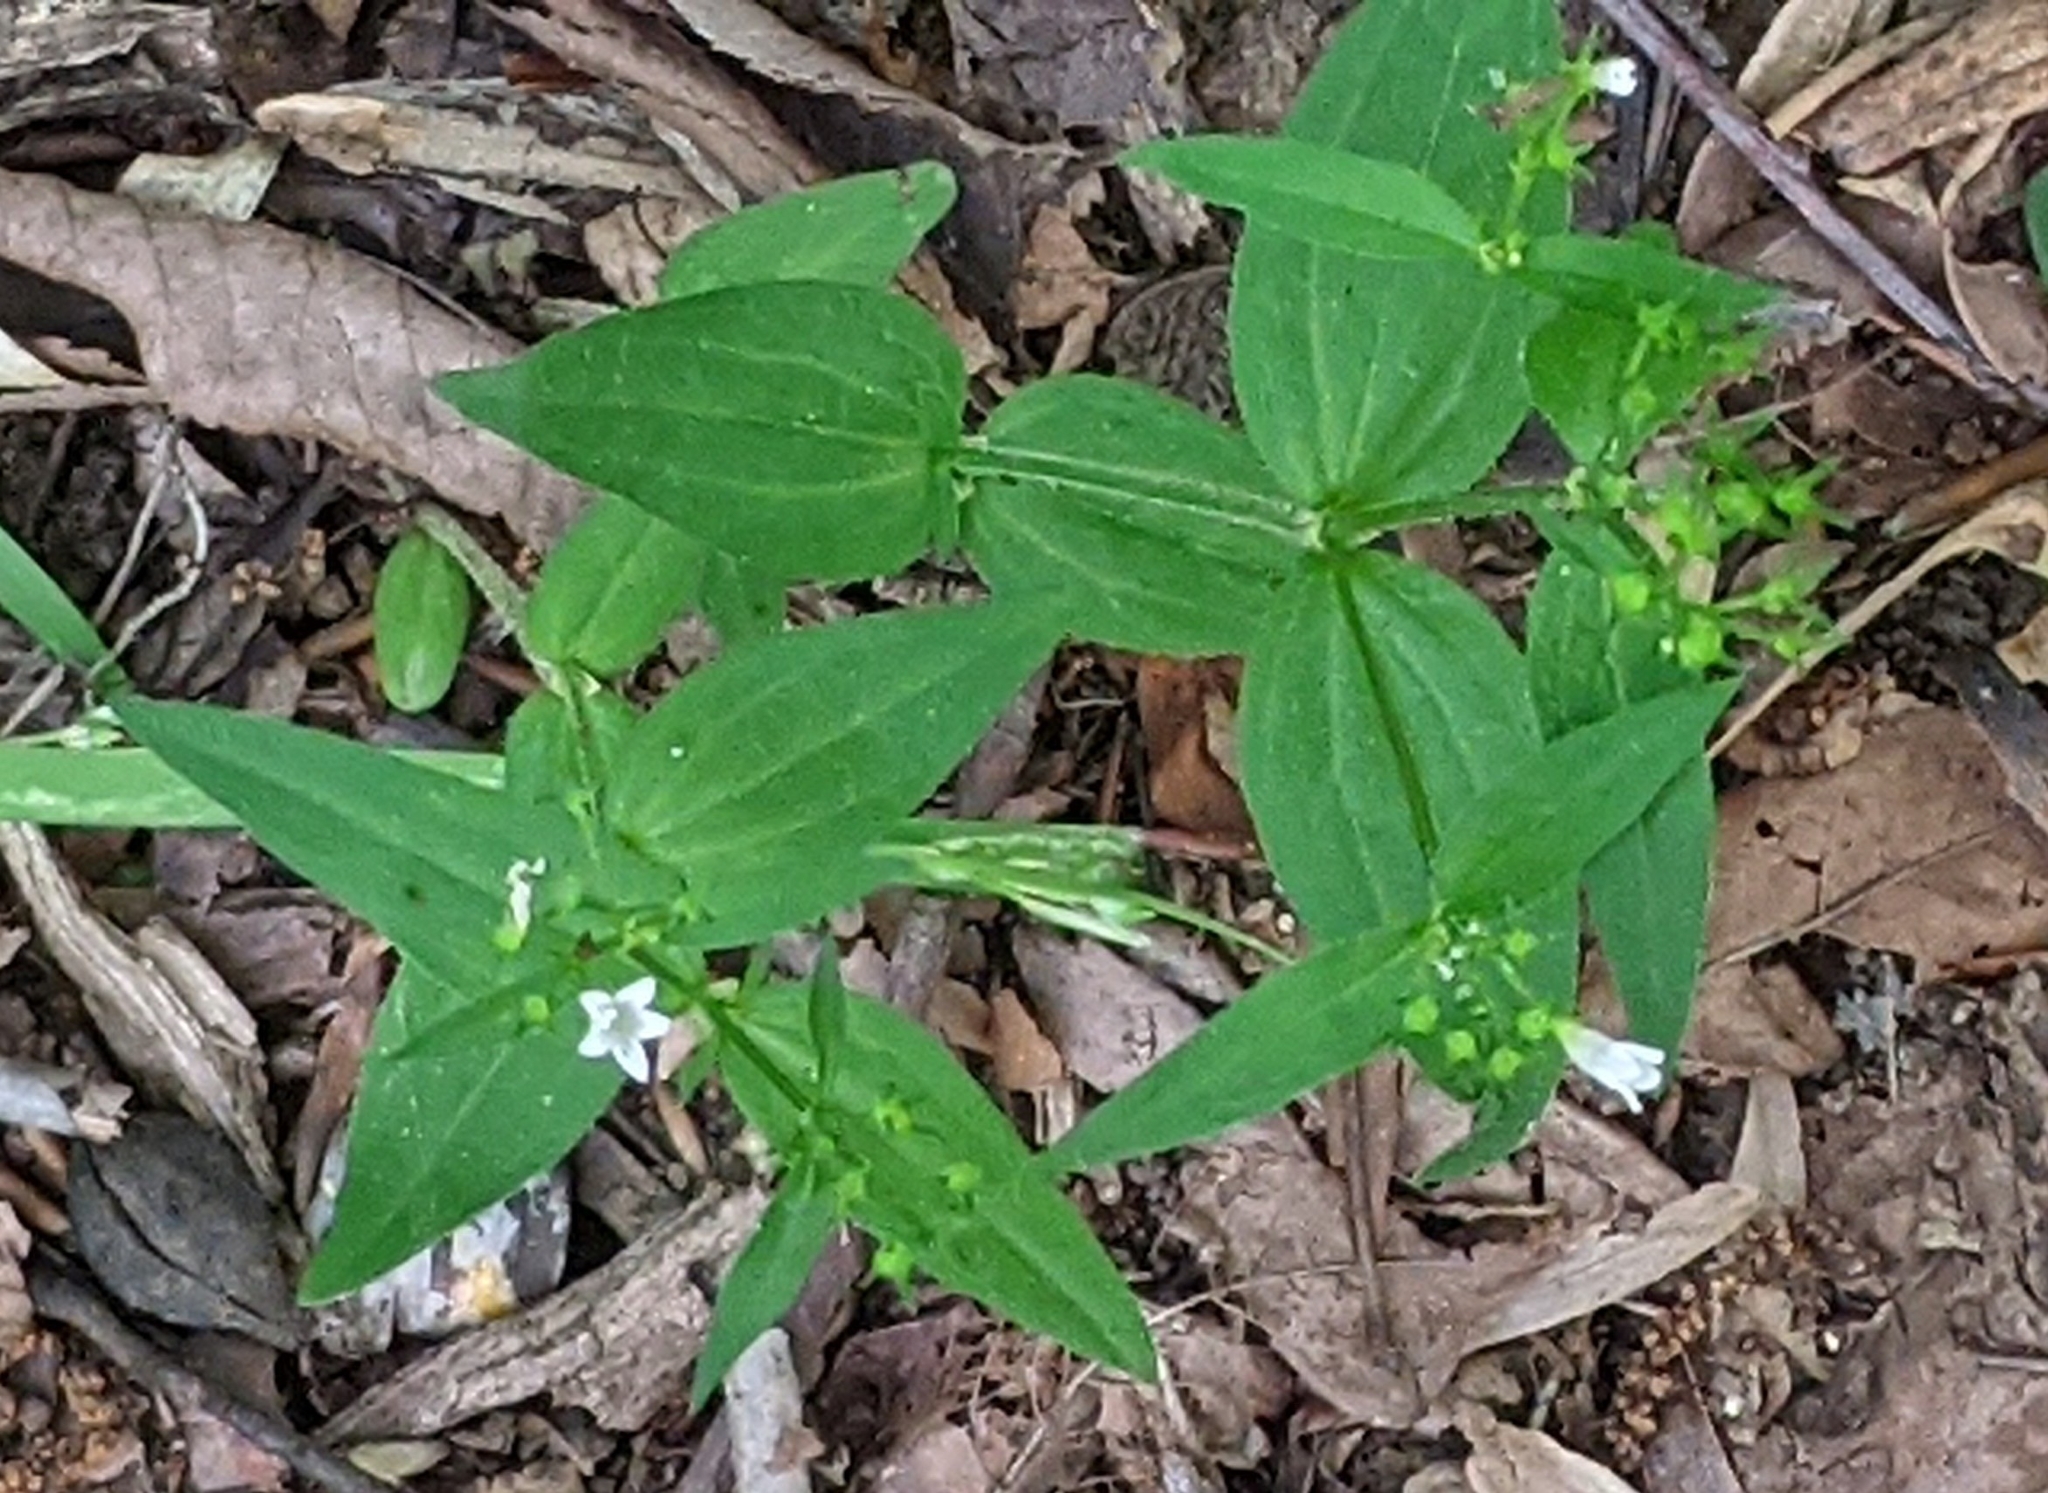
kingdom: Plantae
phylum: Tracheophyta
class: Magnoliopsida
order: Gentianales
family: Rubiaceae
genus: Houstonia
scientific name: Houstonia purpurea
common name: Summer bluet
